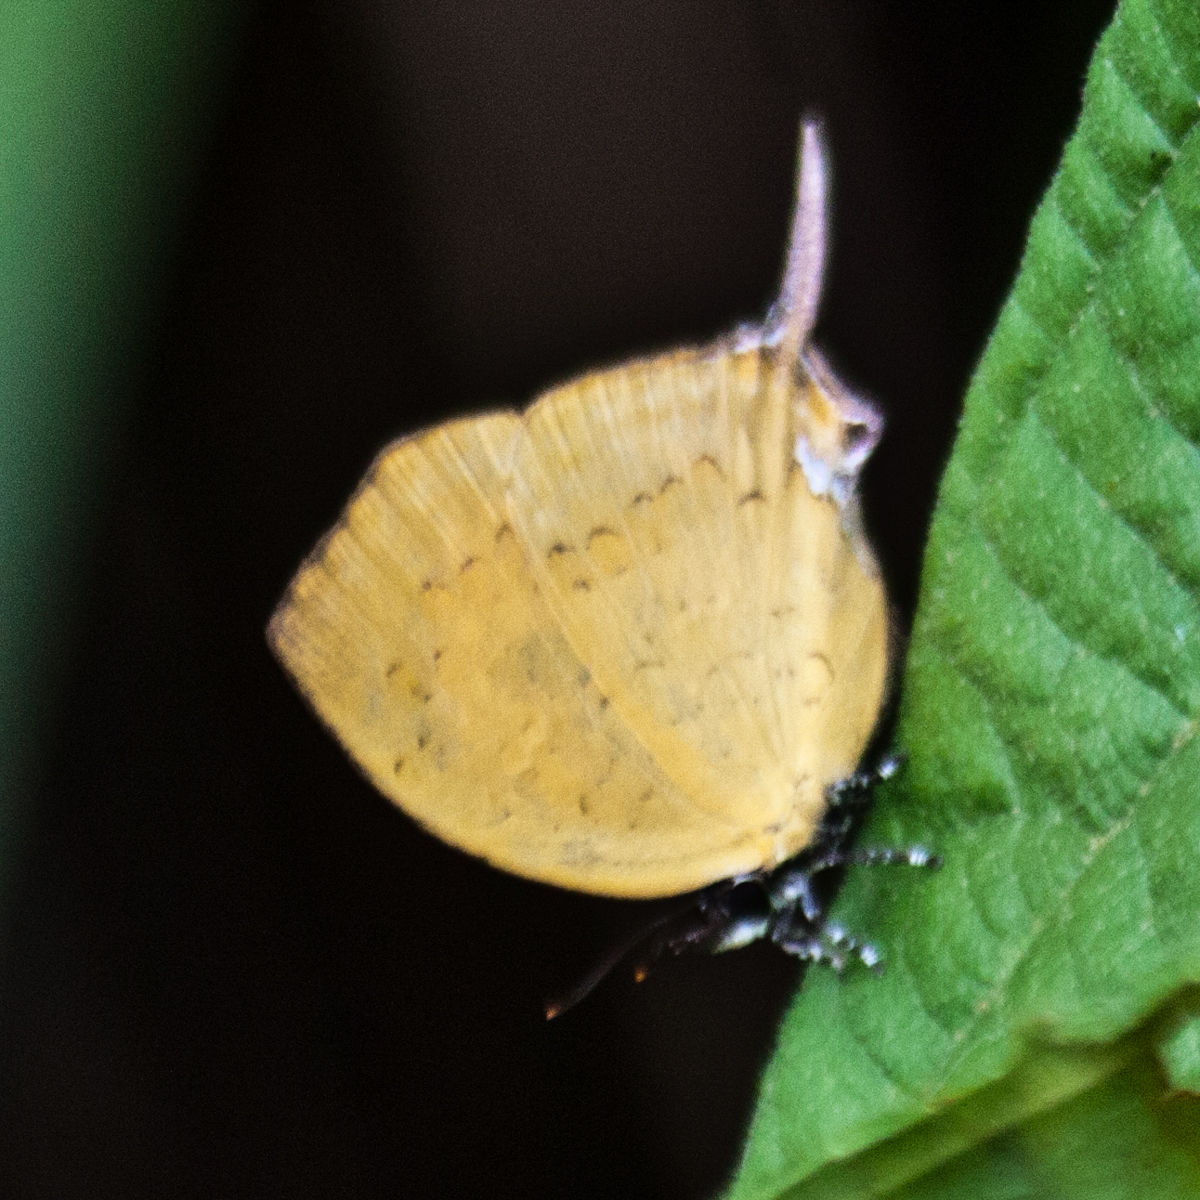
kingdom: Animalia
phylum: Arthropoda
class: Insecta
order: Lepidoptera
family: Lycaenidae
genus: Yasoda
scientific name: Yasoda tripunctata
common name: Branded yamfly
